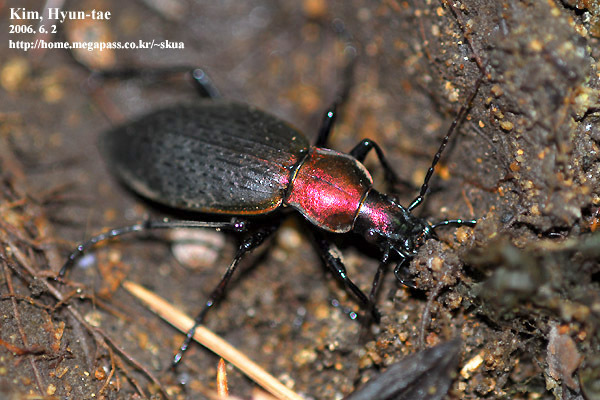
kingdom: Animalia
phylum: Arthropoda
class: Insecta
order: Coleoptera
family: Carabidae
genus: Carabus
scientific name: Carabus jankowskii
